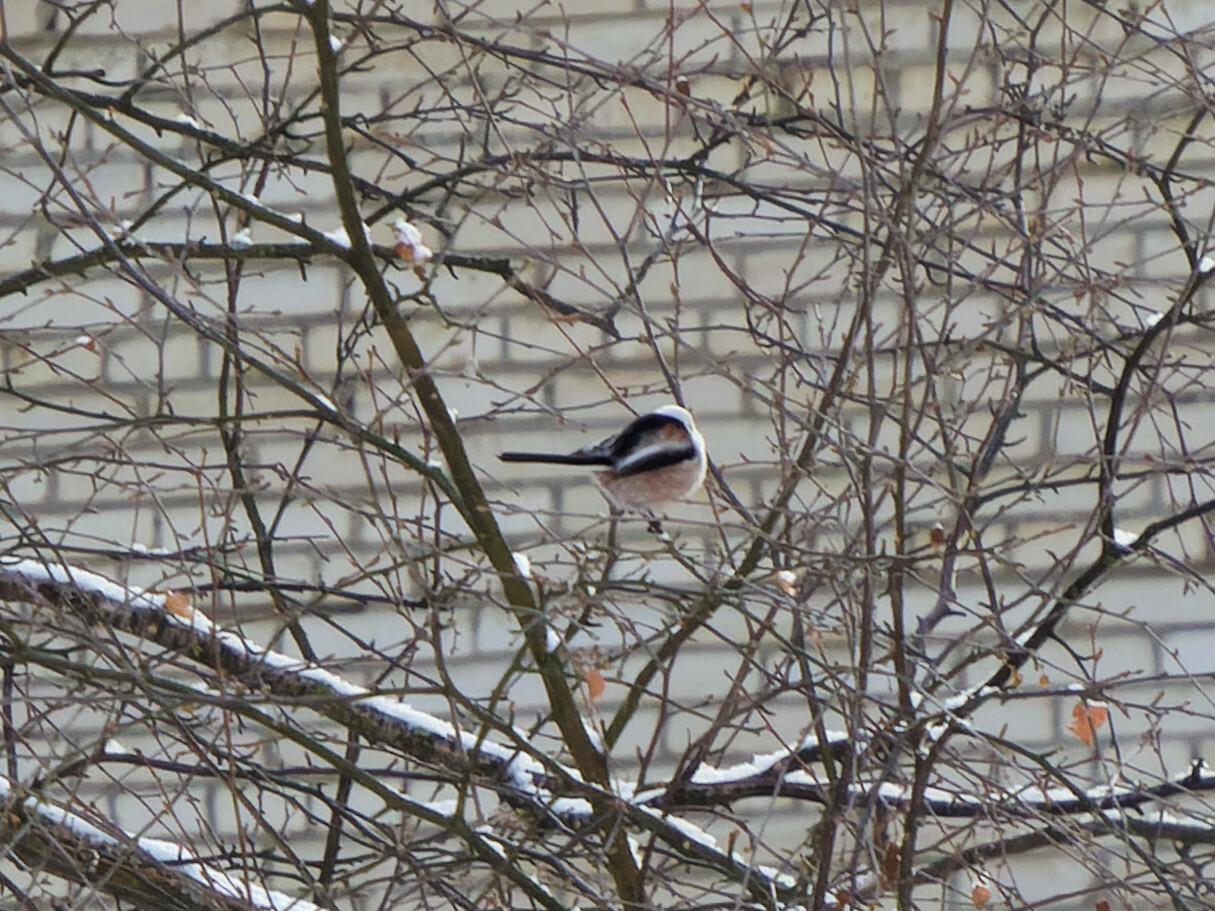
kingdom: Animalia
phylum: Chordata
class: Aves
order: Passeriformes
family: Aegithalidae
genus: Aegithalos
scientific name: Aegithalos caudatus
